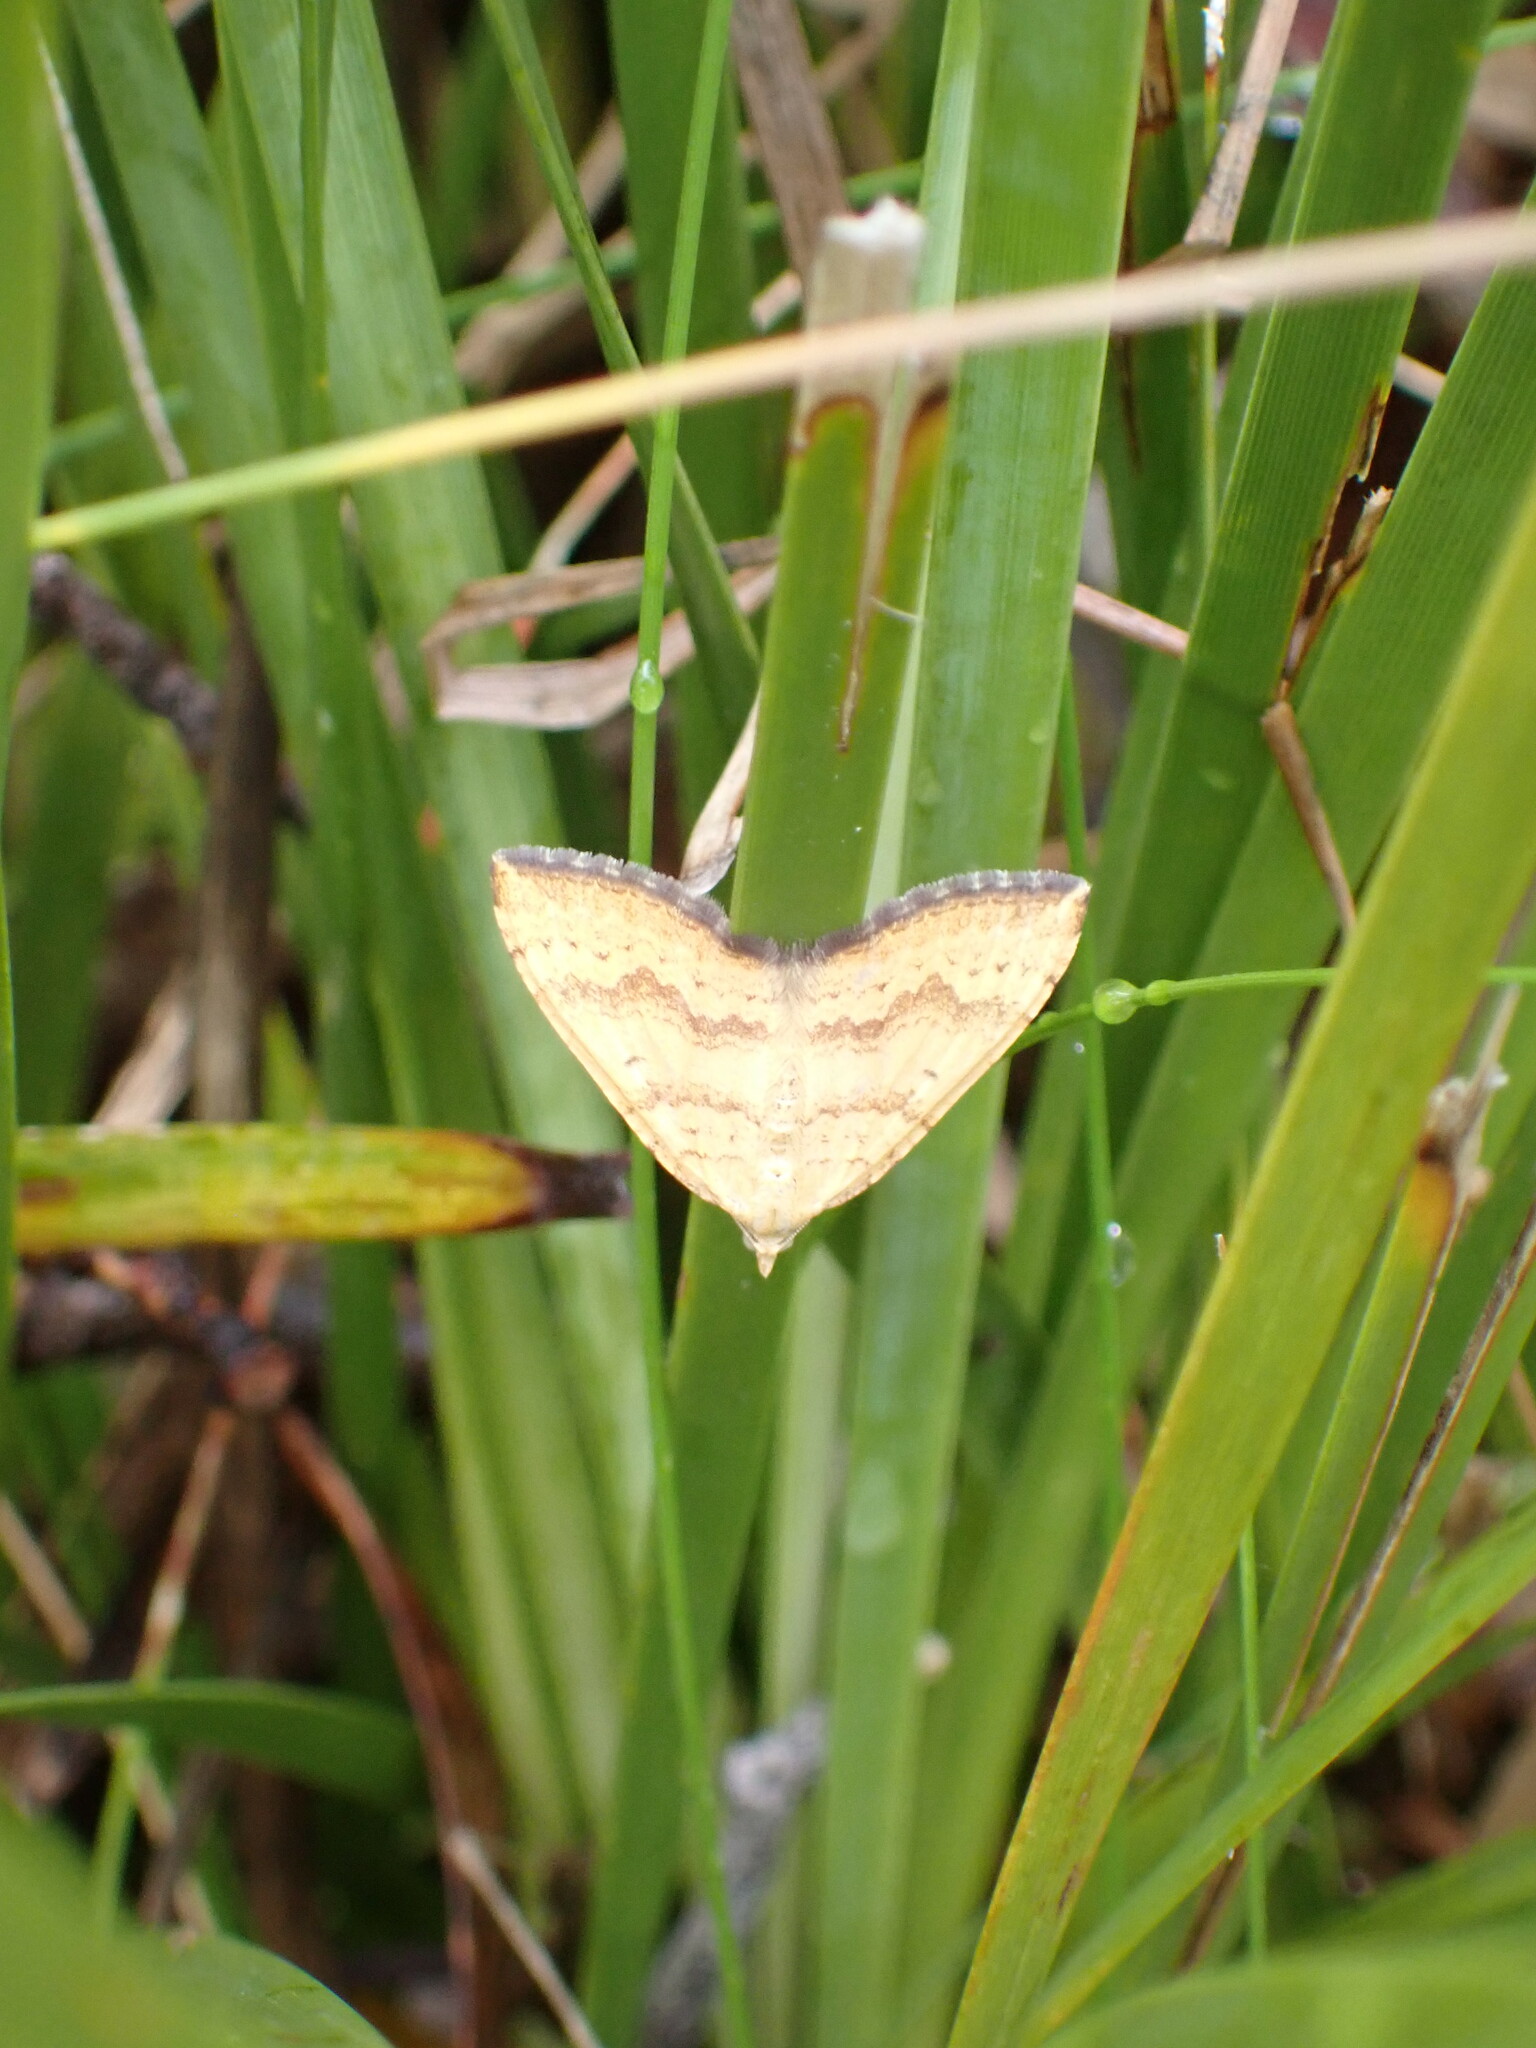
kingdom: Animalia
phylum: Arthropoda
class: Insecta
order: Lepidoptera
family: Geometridae
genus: Chrysolarentia
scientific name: Chrysolarentia
